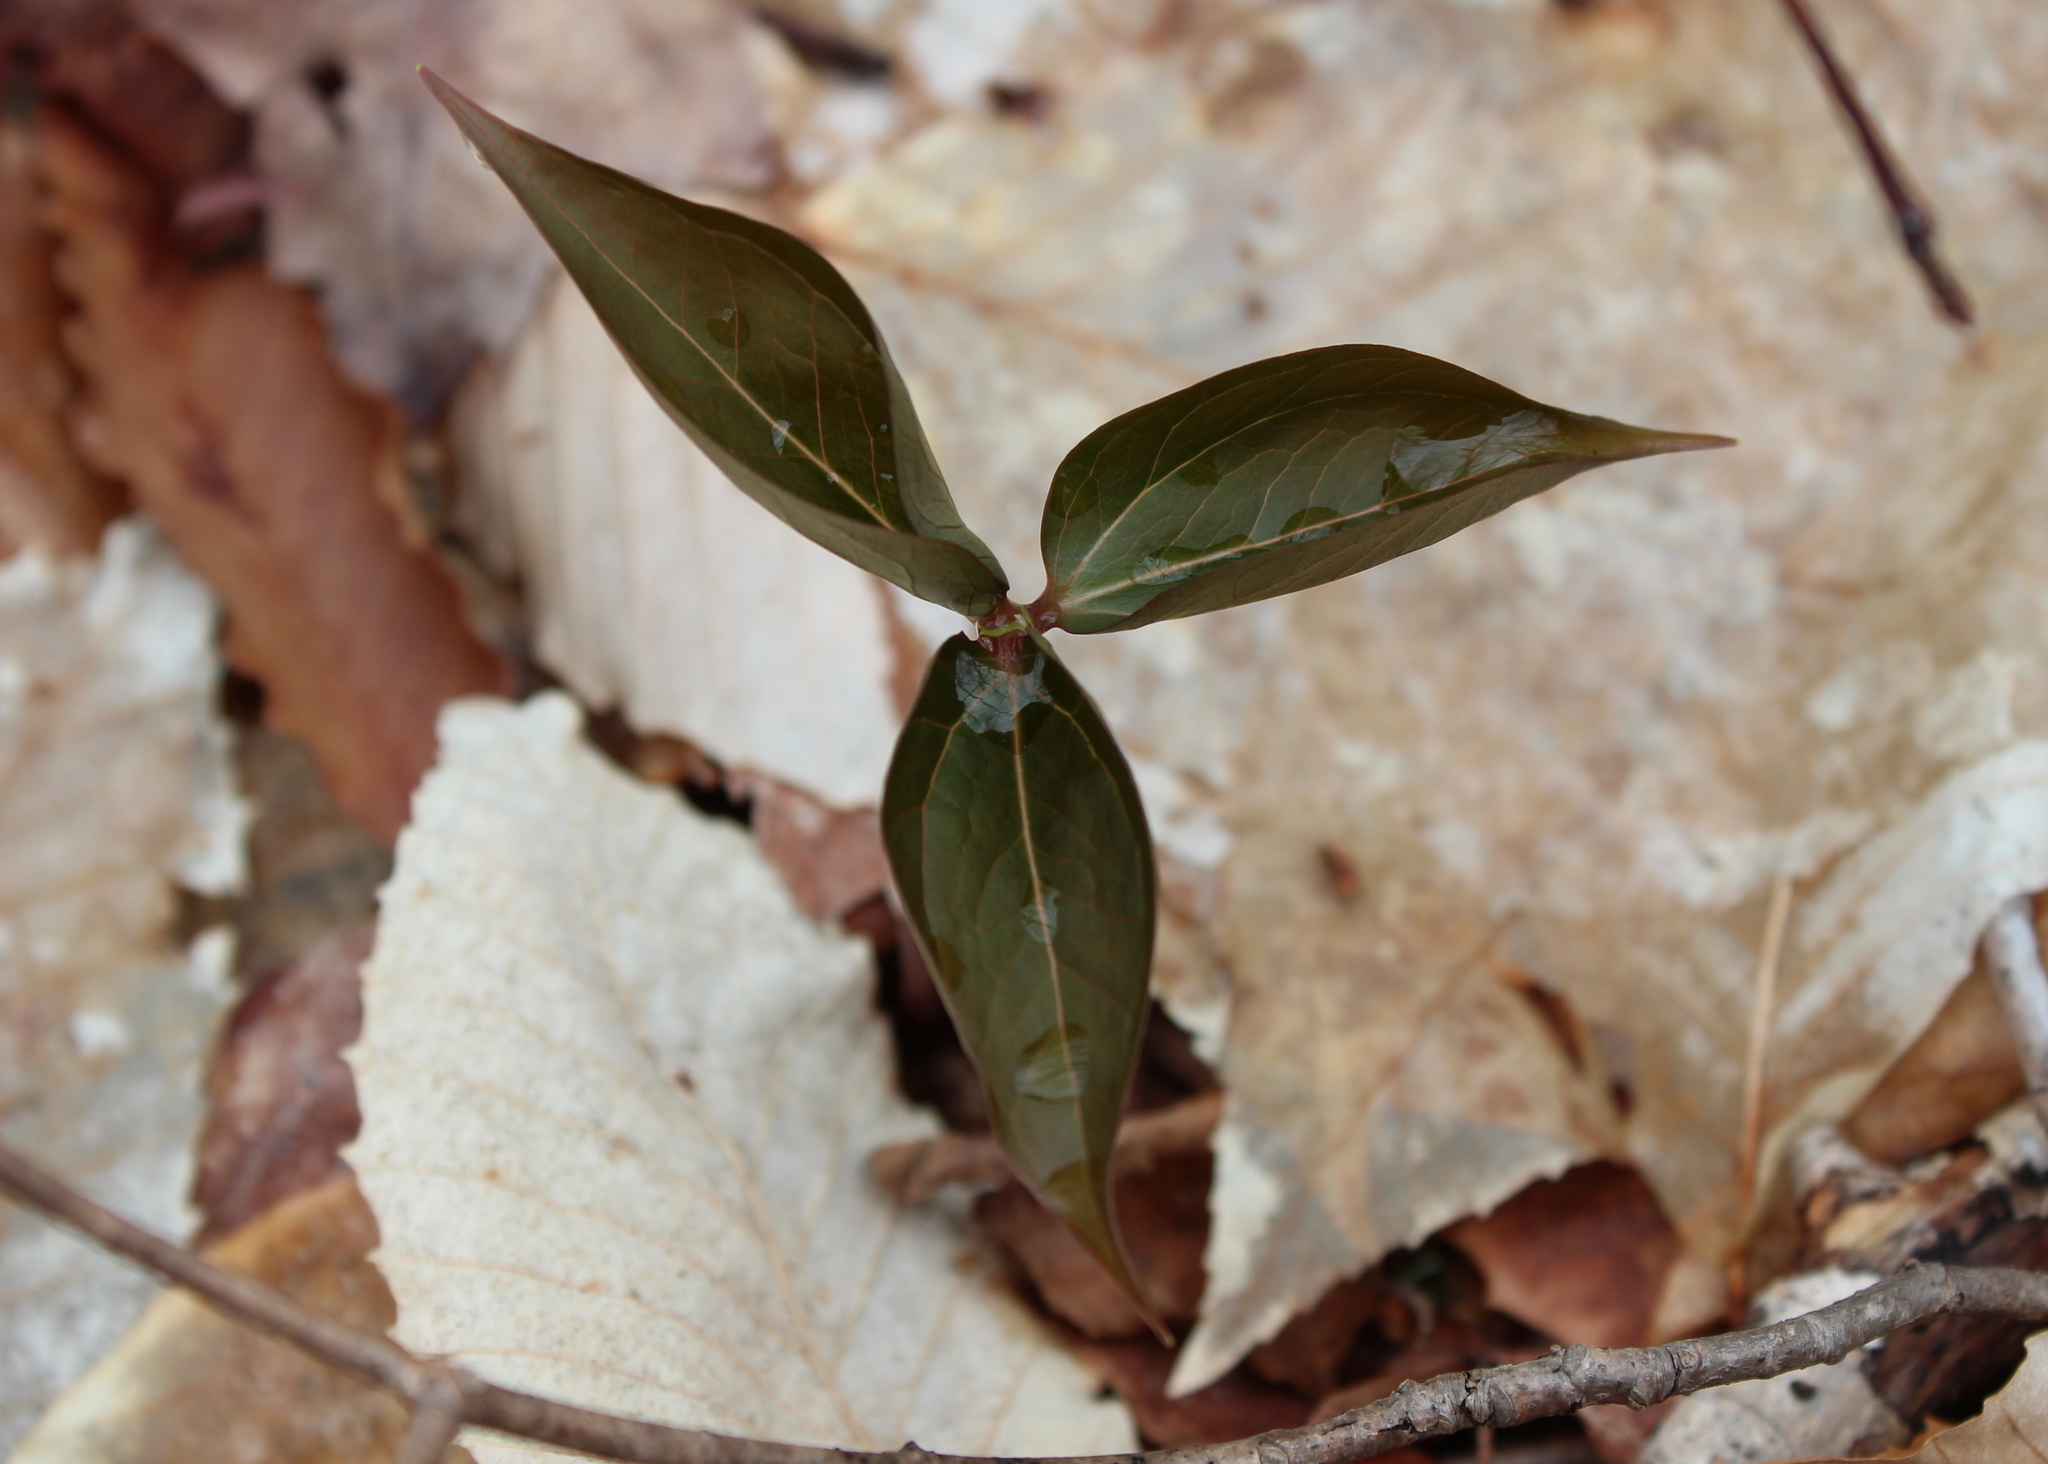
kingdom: Plantae
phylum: Tracheophyta
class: Liliopsida
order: Liliales
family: Melanthiaceae
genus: Trillium
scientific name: Trillium undulatum
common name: Paint trillium
